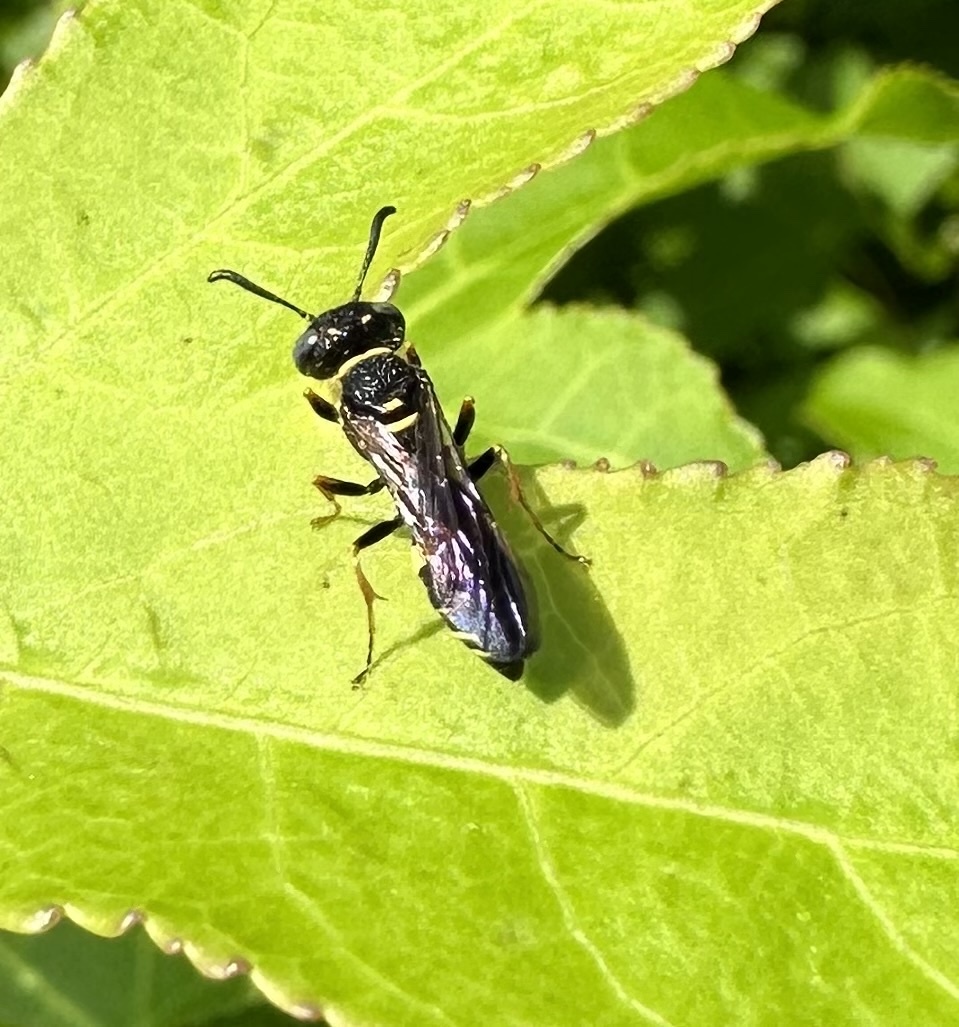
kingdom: Animalia
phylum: Arthropoda
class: Insecta
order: Hymenoptera
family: Crabronidae
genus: Philanthus
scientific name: Philanthus gibbosus
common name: Humped beewolf
